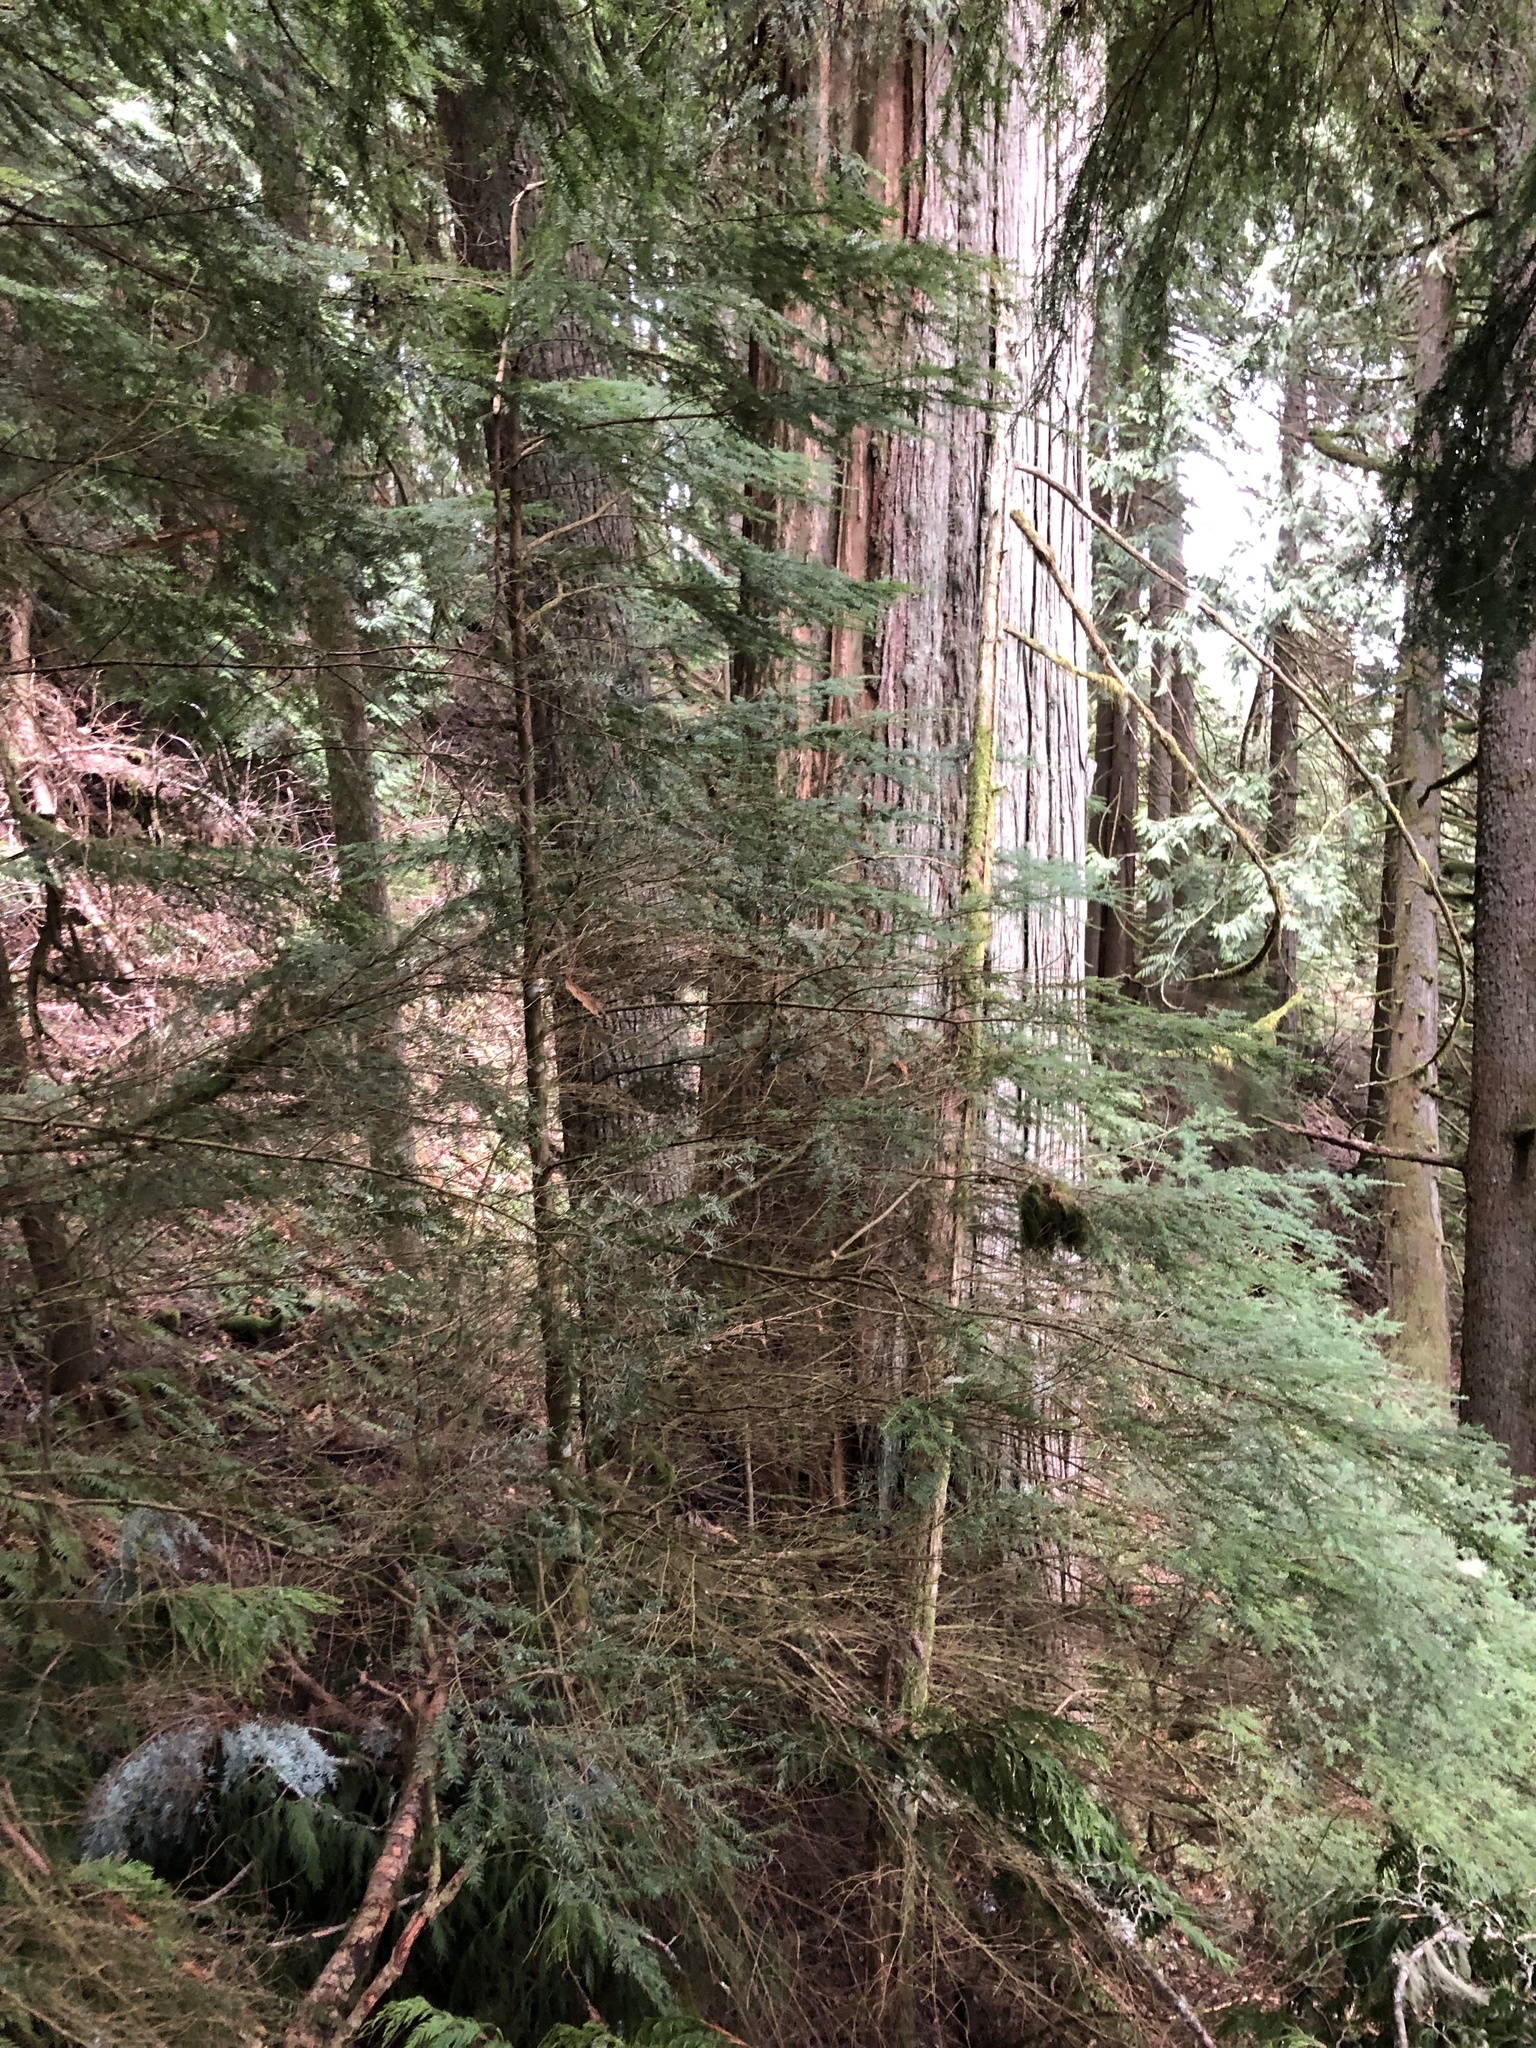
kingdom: Plantae
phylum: Tracheophyta
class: Pinopsida
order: Pinales
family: Pinaceae
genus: Tsuga
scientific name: Tsuga heterophylla
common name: Western hemlock
